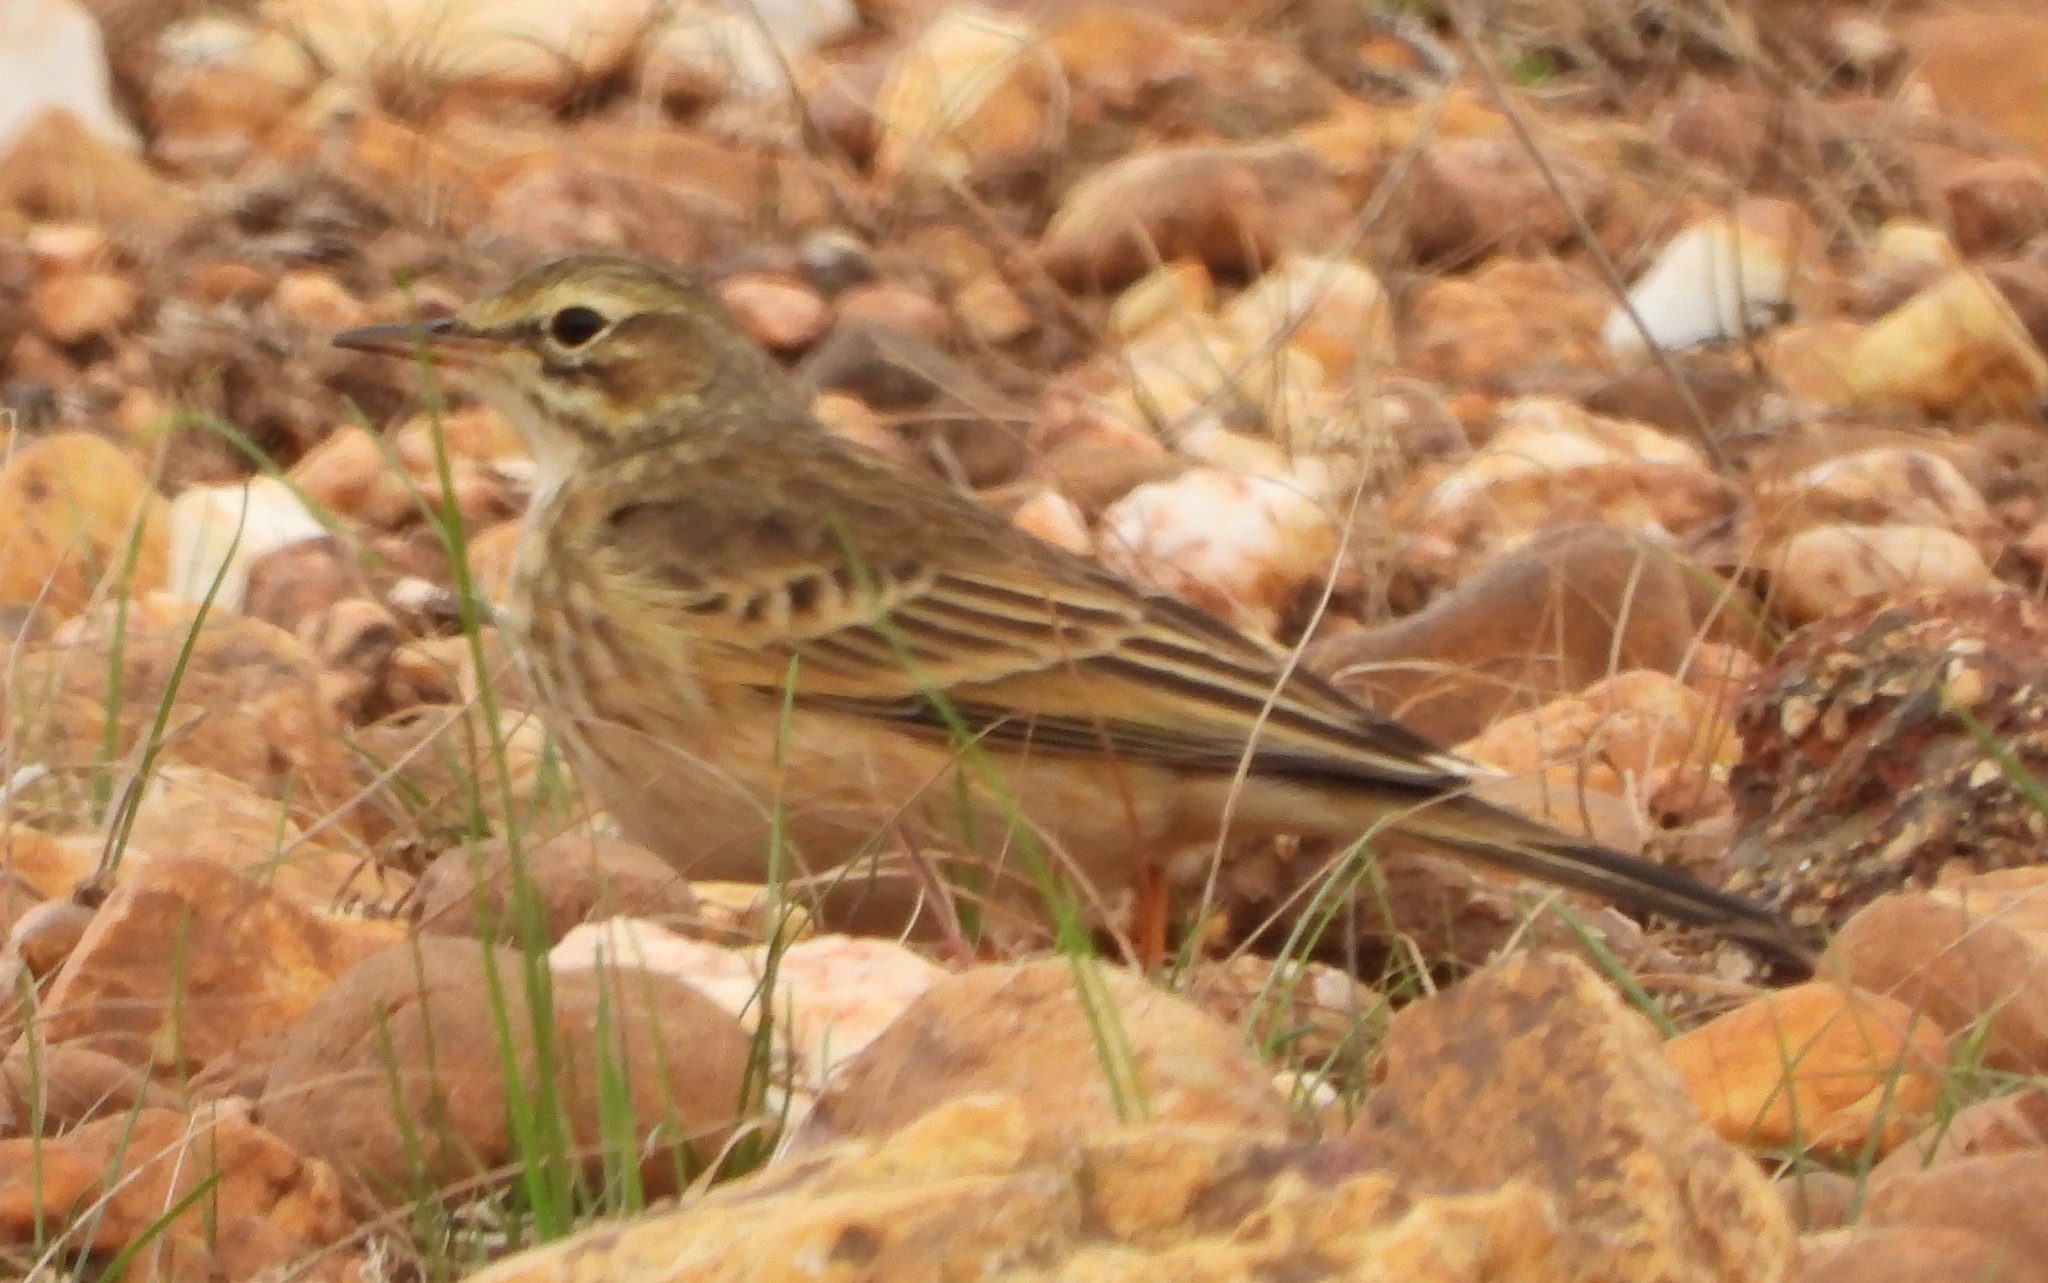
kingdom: Animalia
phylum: Chordata
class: Aves
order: Passeriformes
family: Motacillidae
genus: Anthus
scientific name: Anthus cinnamomeus
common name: African pipit
